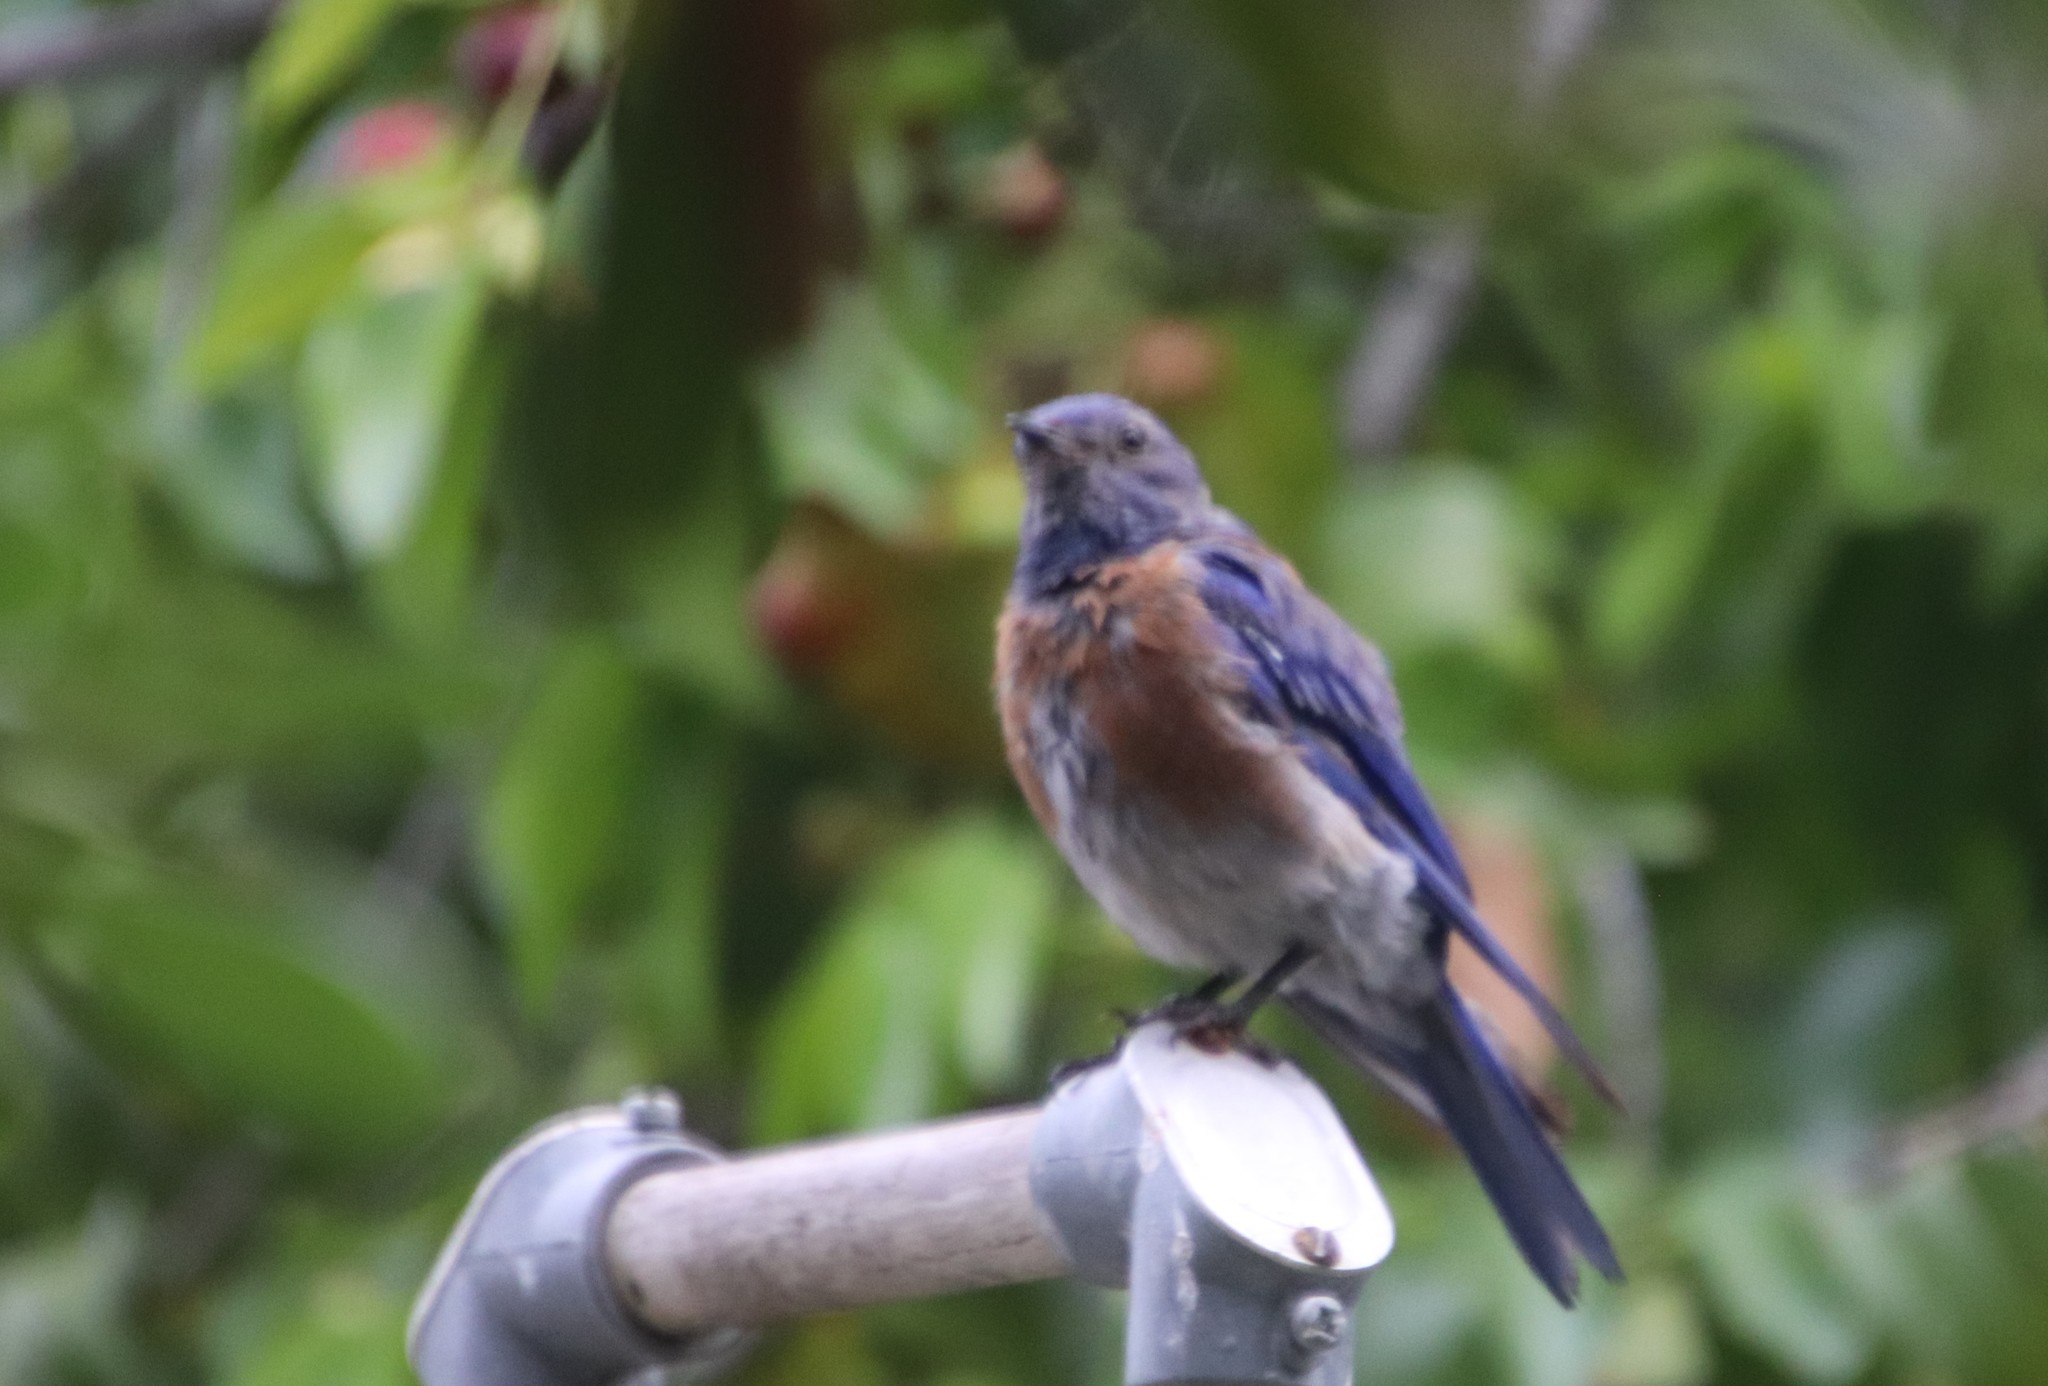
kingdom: Animalia
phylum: Chordata
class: Aves
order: Passeriformes
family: Turdidae
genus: Sialia
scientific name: Sialia mexicana
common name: Western bluebird
